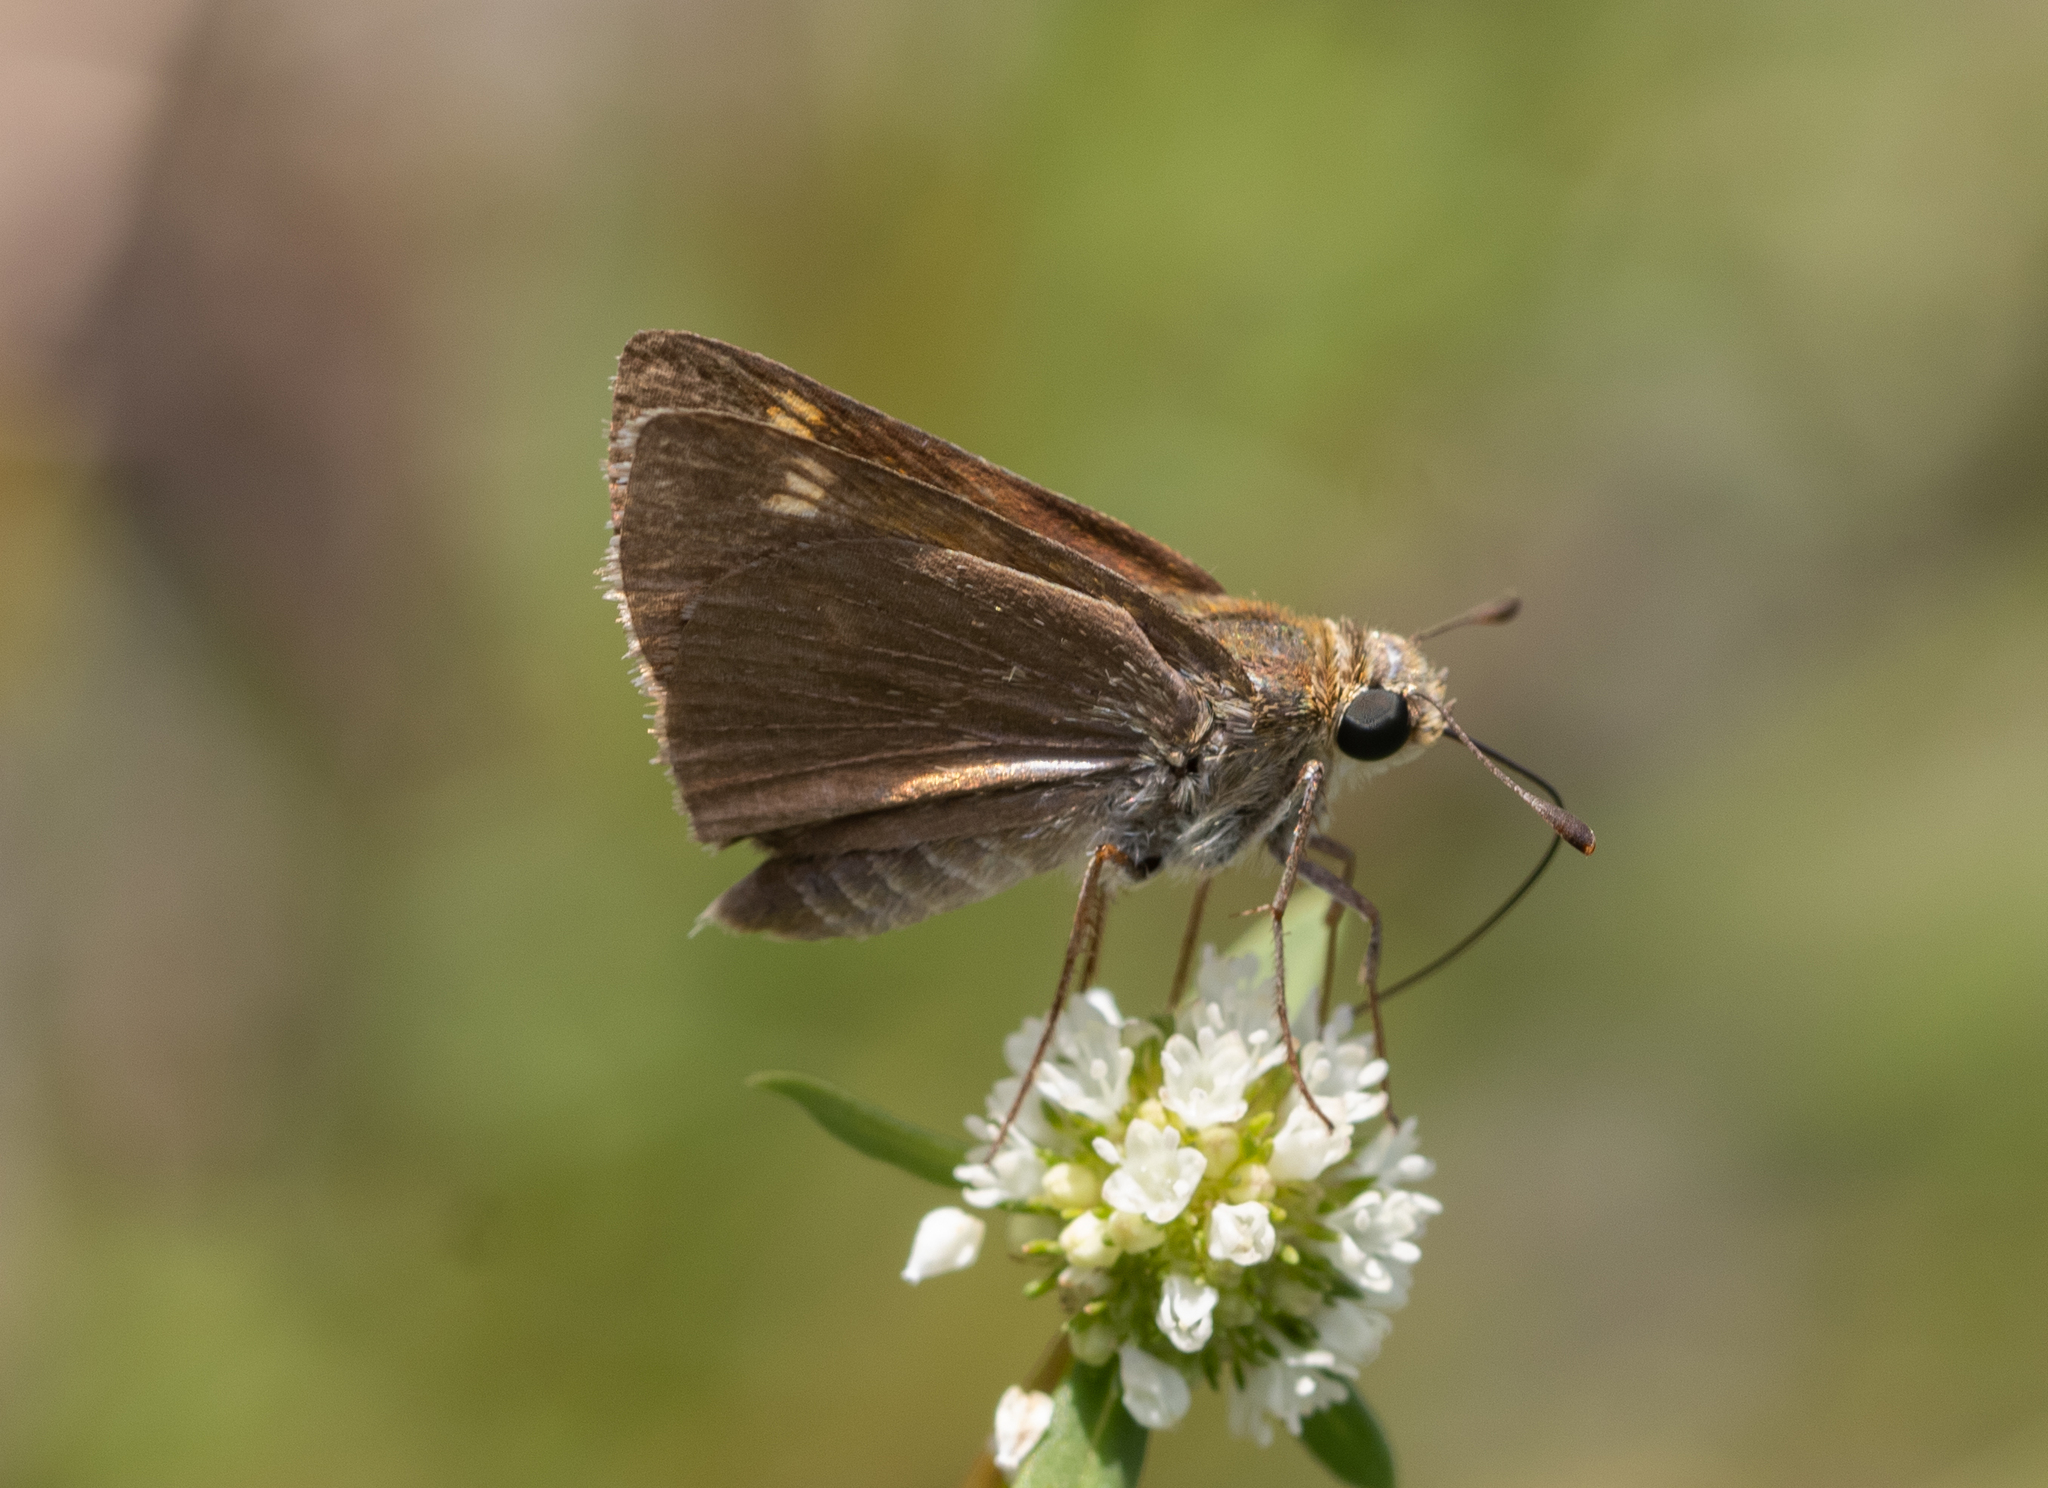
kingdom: Animalia
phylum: Arthropoda
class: Insecta
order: Lepidoptera
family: Hesperiidae
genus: Polites
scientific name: Polites themistocles
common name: Tawny-edged skipper
